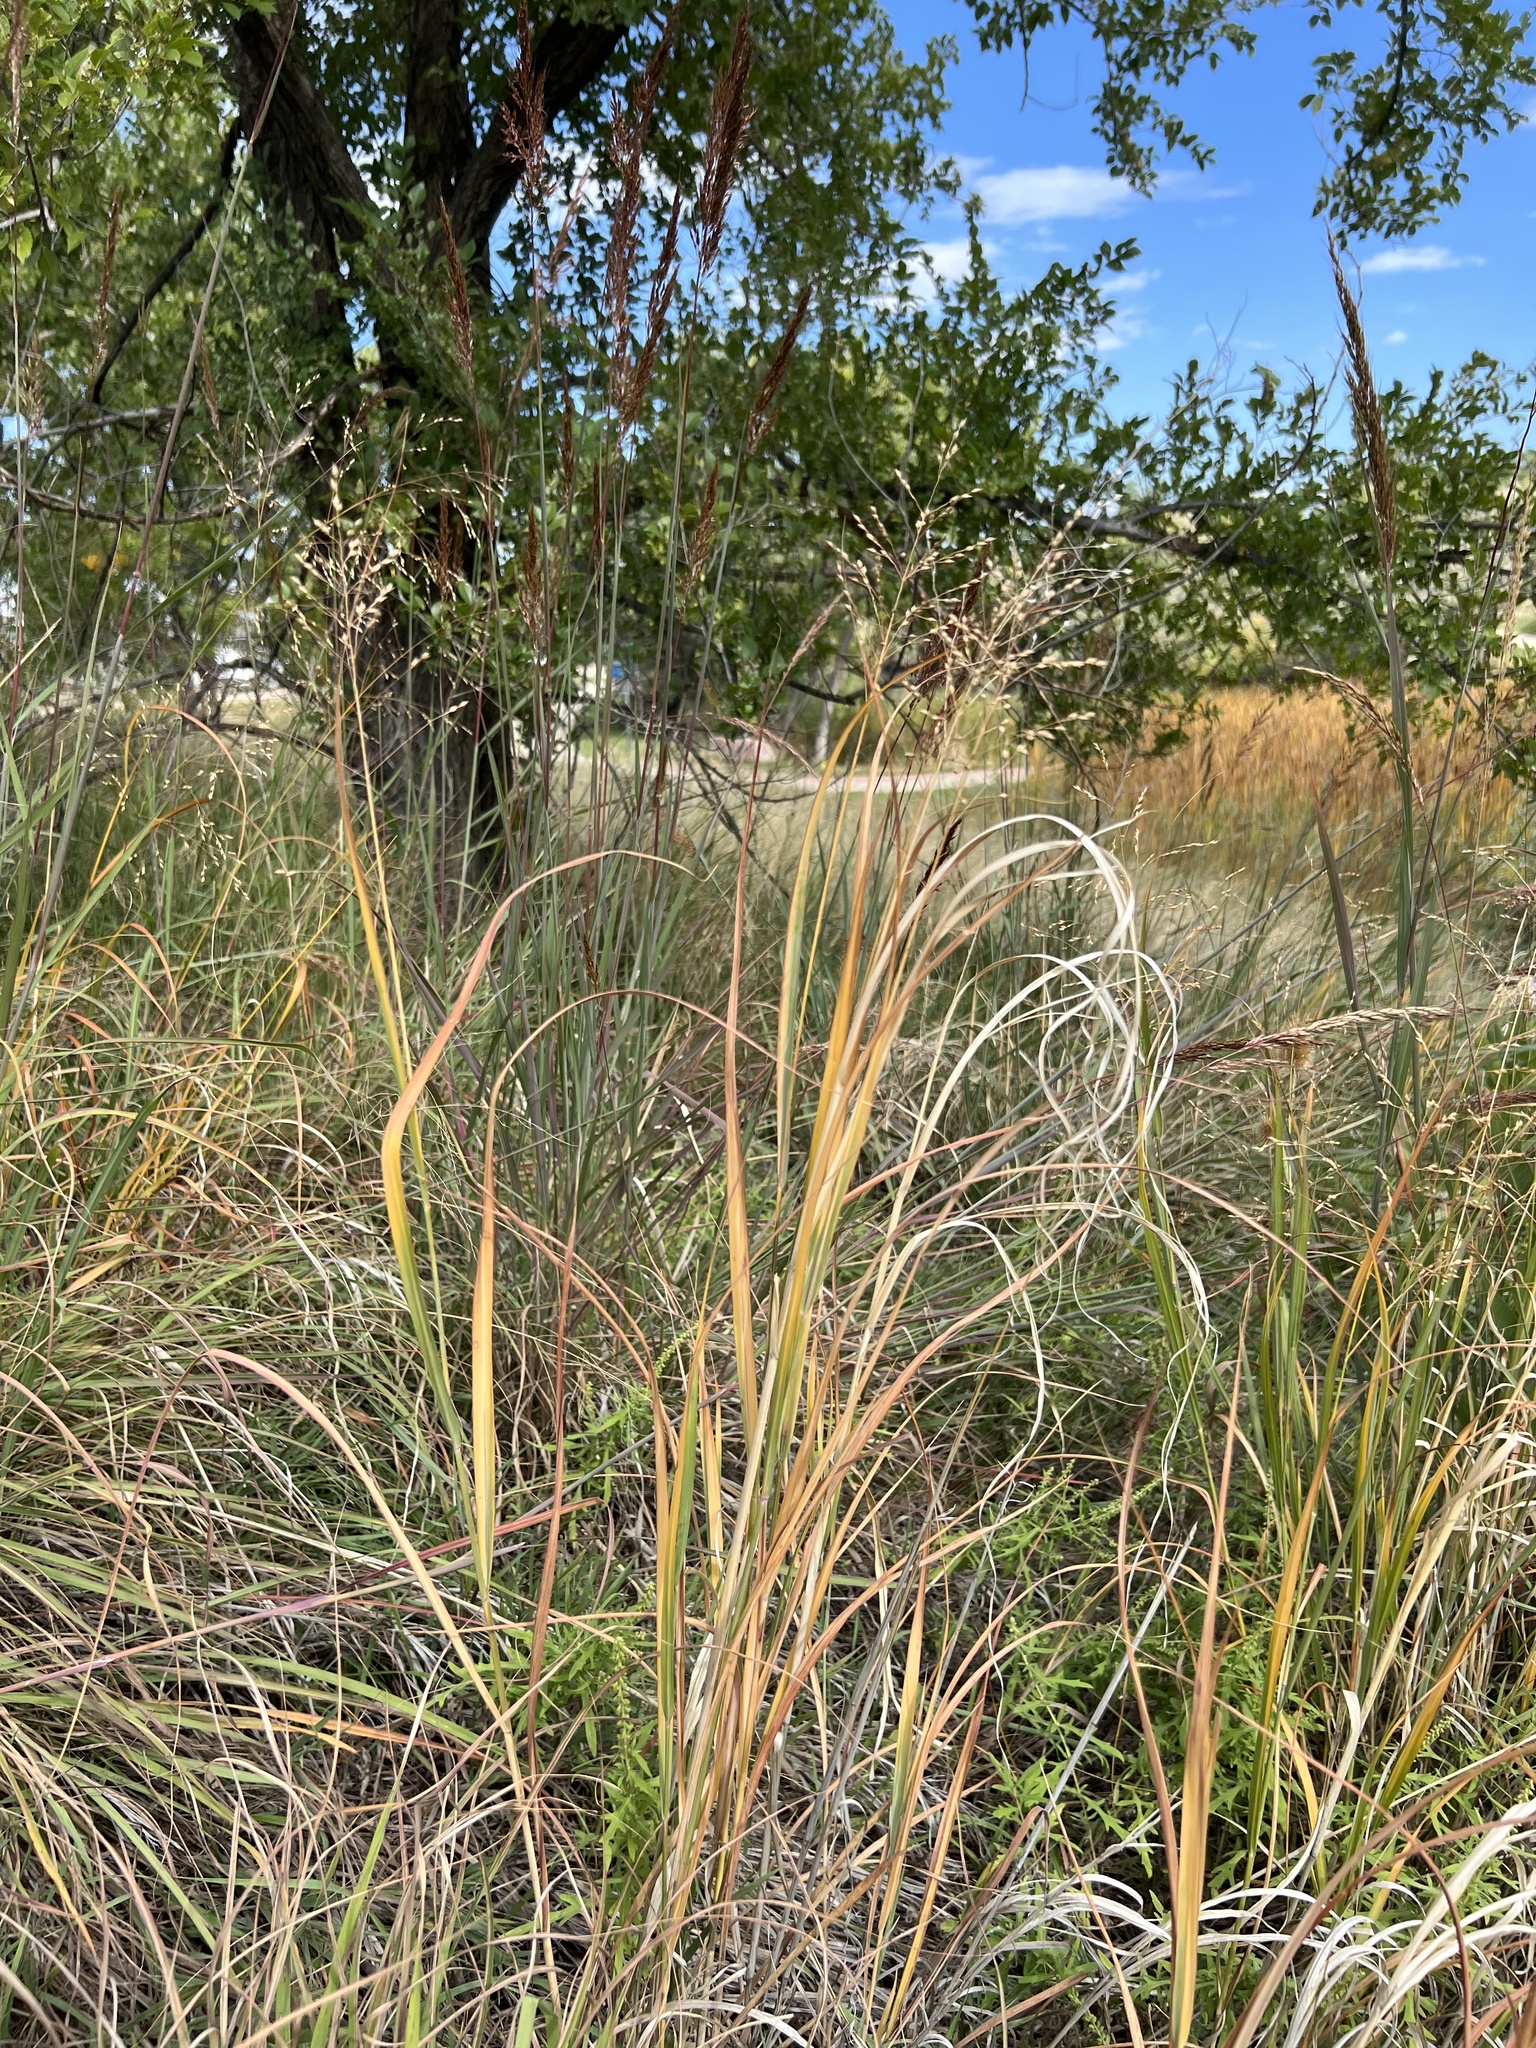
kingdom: Plantae
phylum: Tracheophyta
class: Liliopsida
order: Poales
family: Poaceae
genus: Panicum
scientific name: Panicum virgatum
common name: Switchgrass
